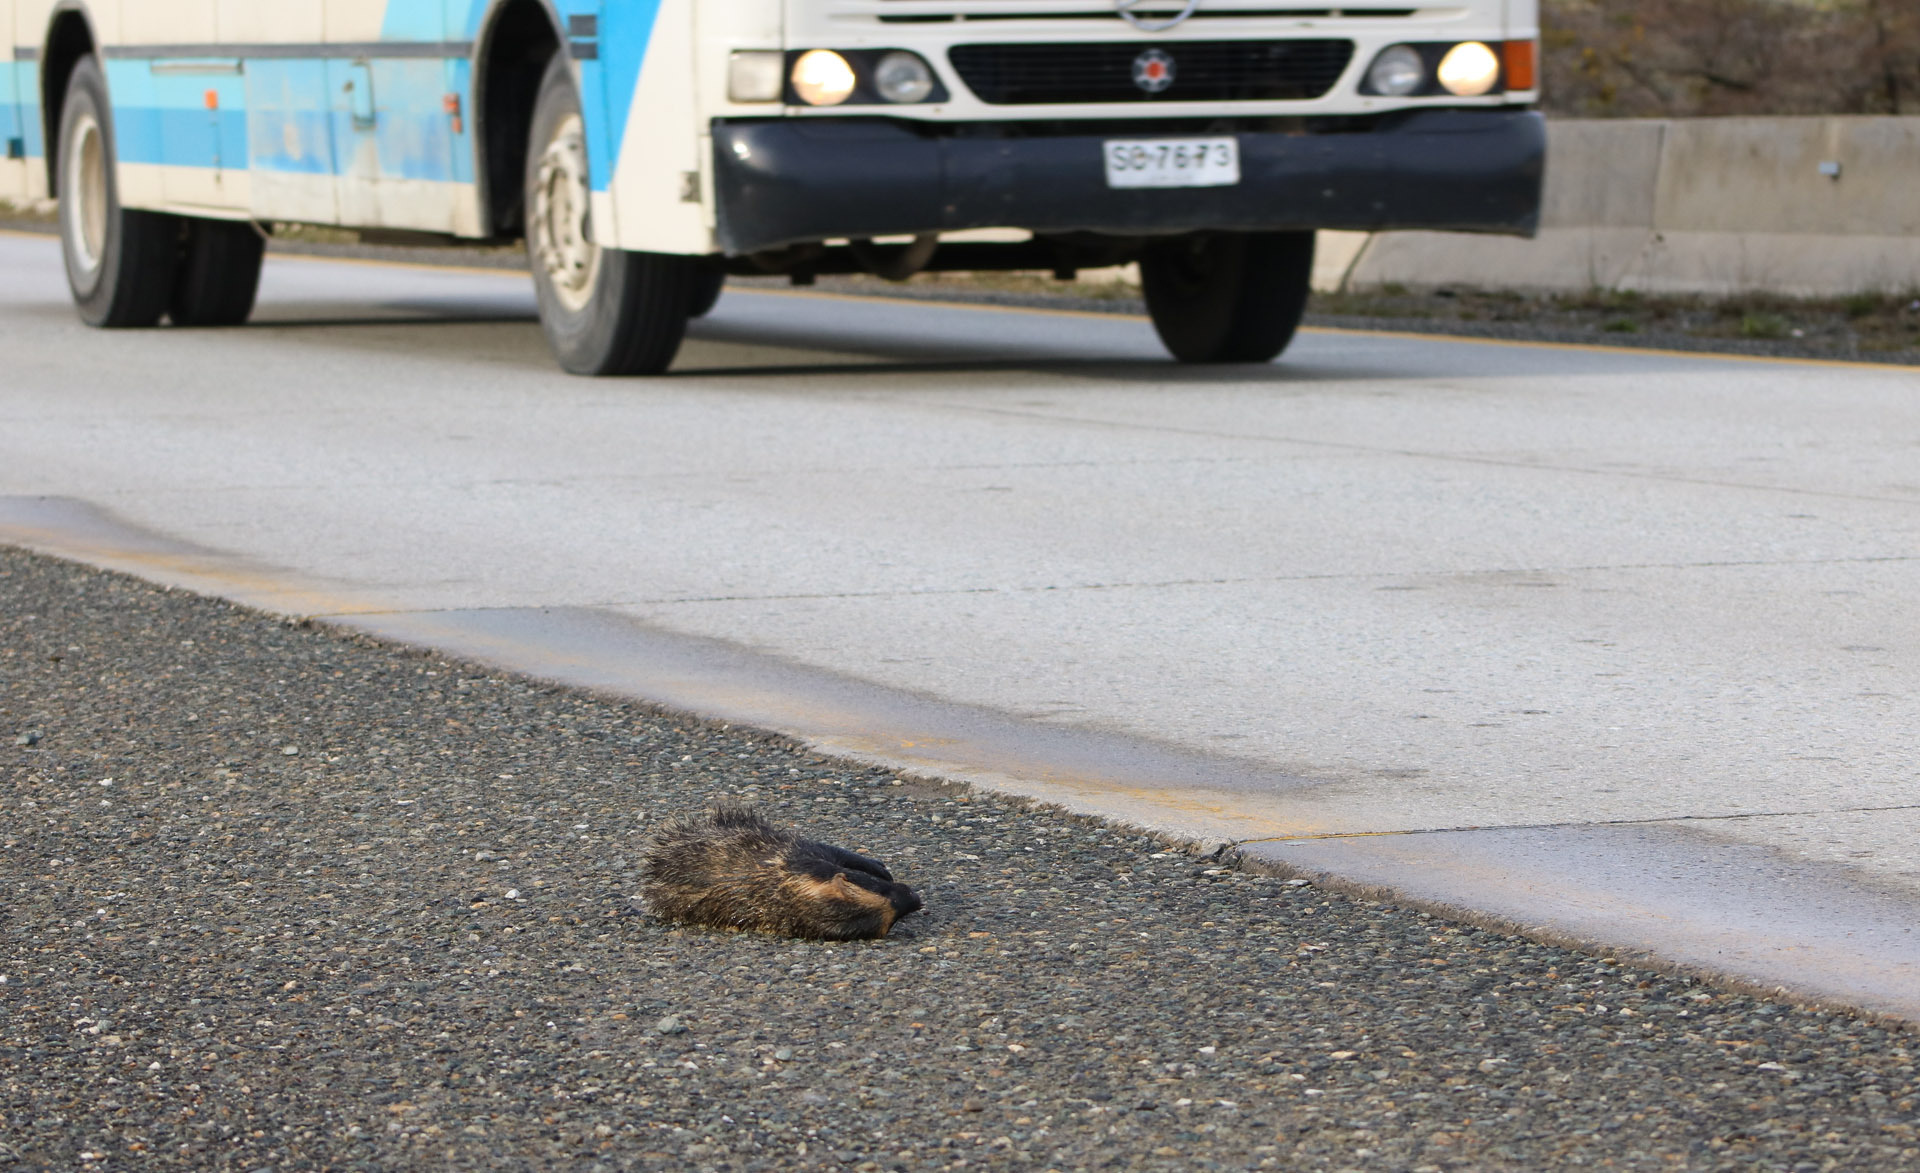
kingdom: Animalia
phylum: Chordata
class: Mammalia
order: Carnivora
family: Mustelidae
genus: Galictis
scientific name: Galictis cuja
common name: Lesser grison
